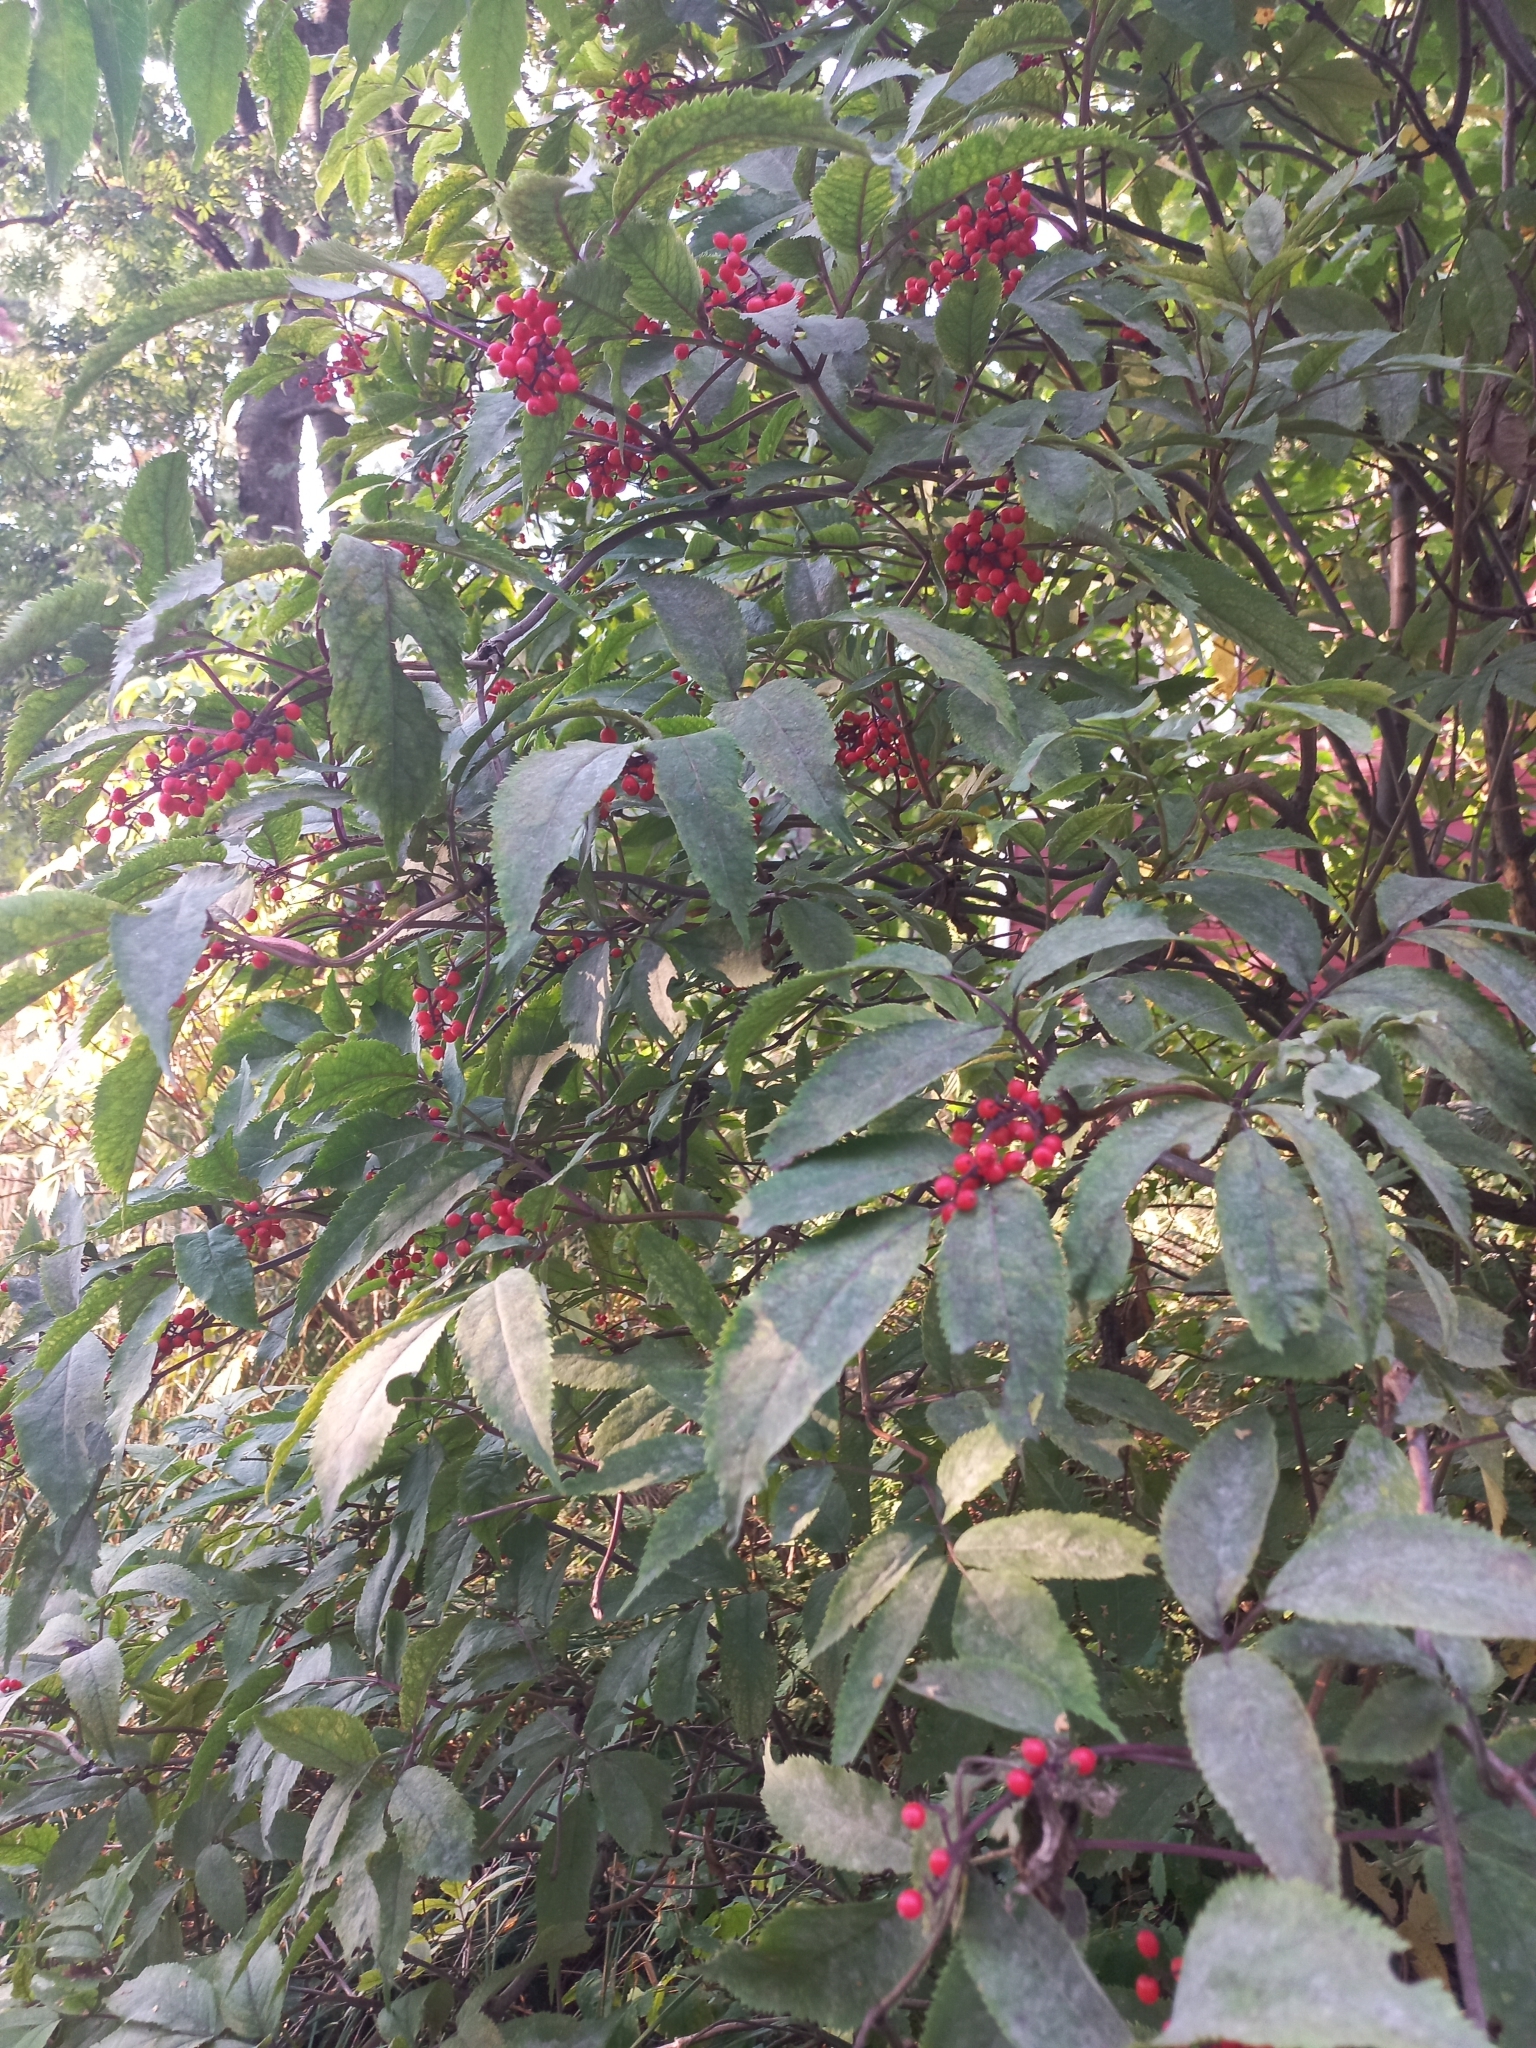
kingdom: Plantae
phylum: Tracheophyta
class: Magnoliopsida
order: Dipsacales
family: Viburnaceae
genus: Sambucus
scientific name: Sambucus racemosa
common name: Red-berried elder
